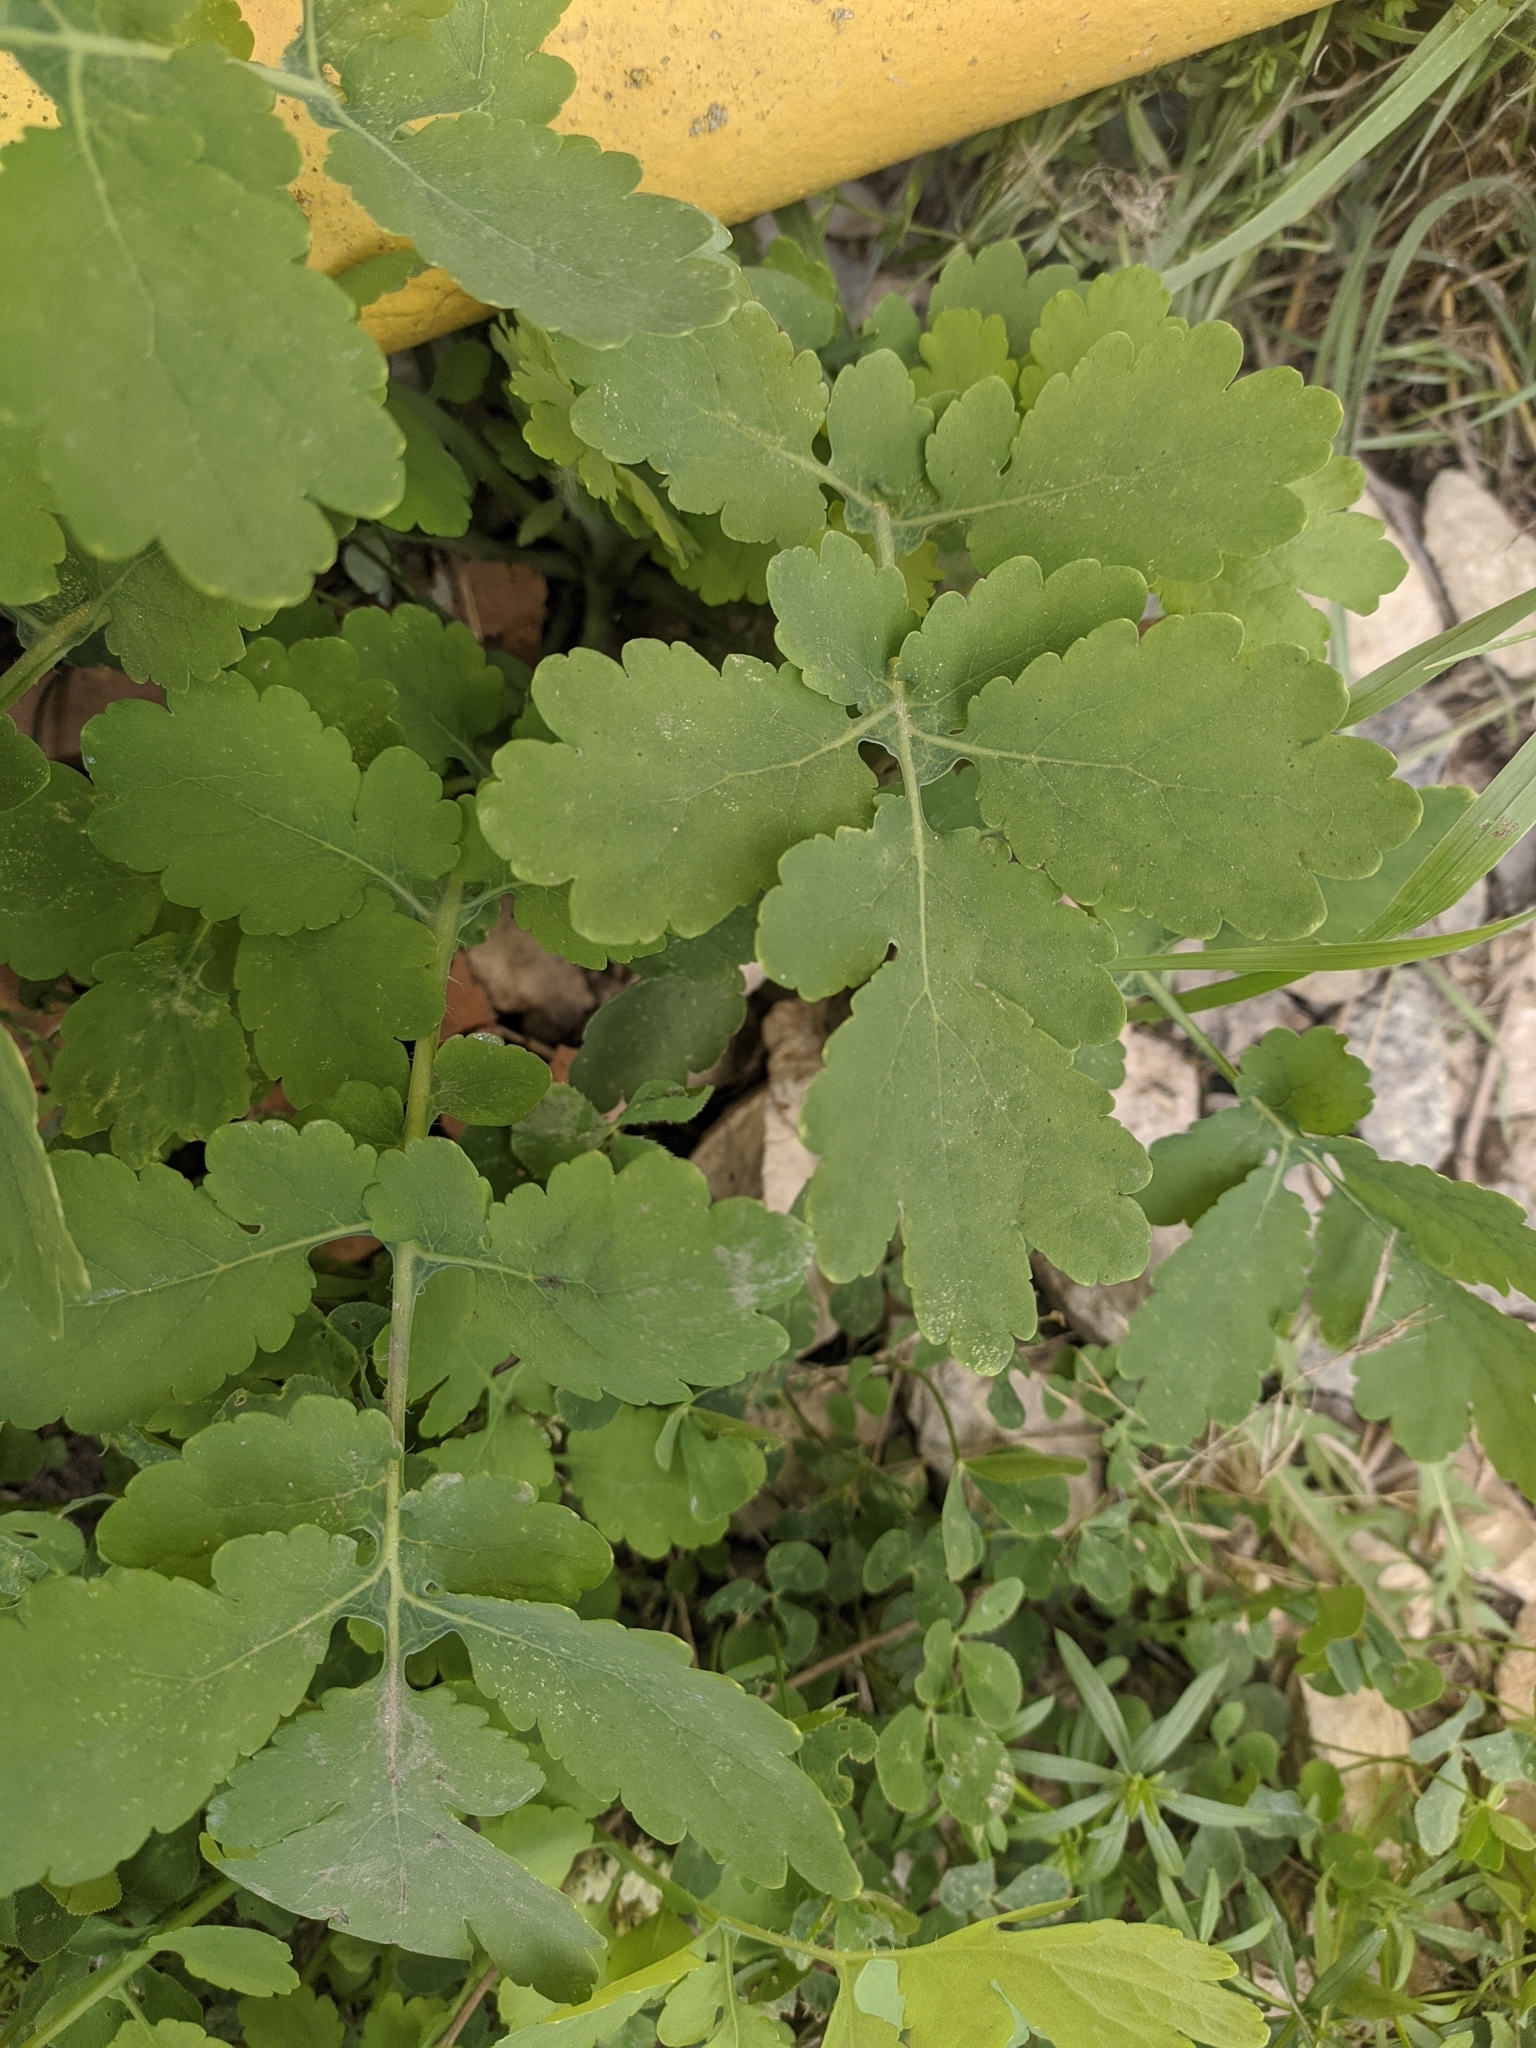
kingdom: Plantae
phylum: Tracheophyta
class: Magnoliopsida
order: Ranunculales
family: Papaveraceae
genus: Chelidonium
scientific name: Chelidonium majus
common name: Greater celandine
